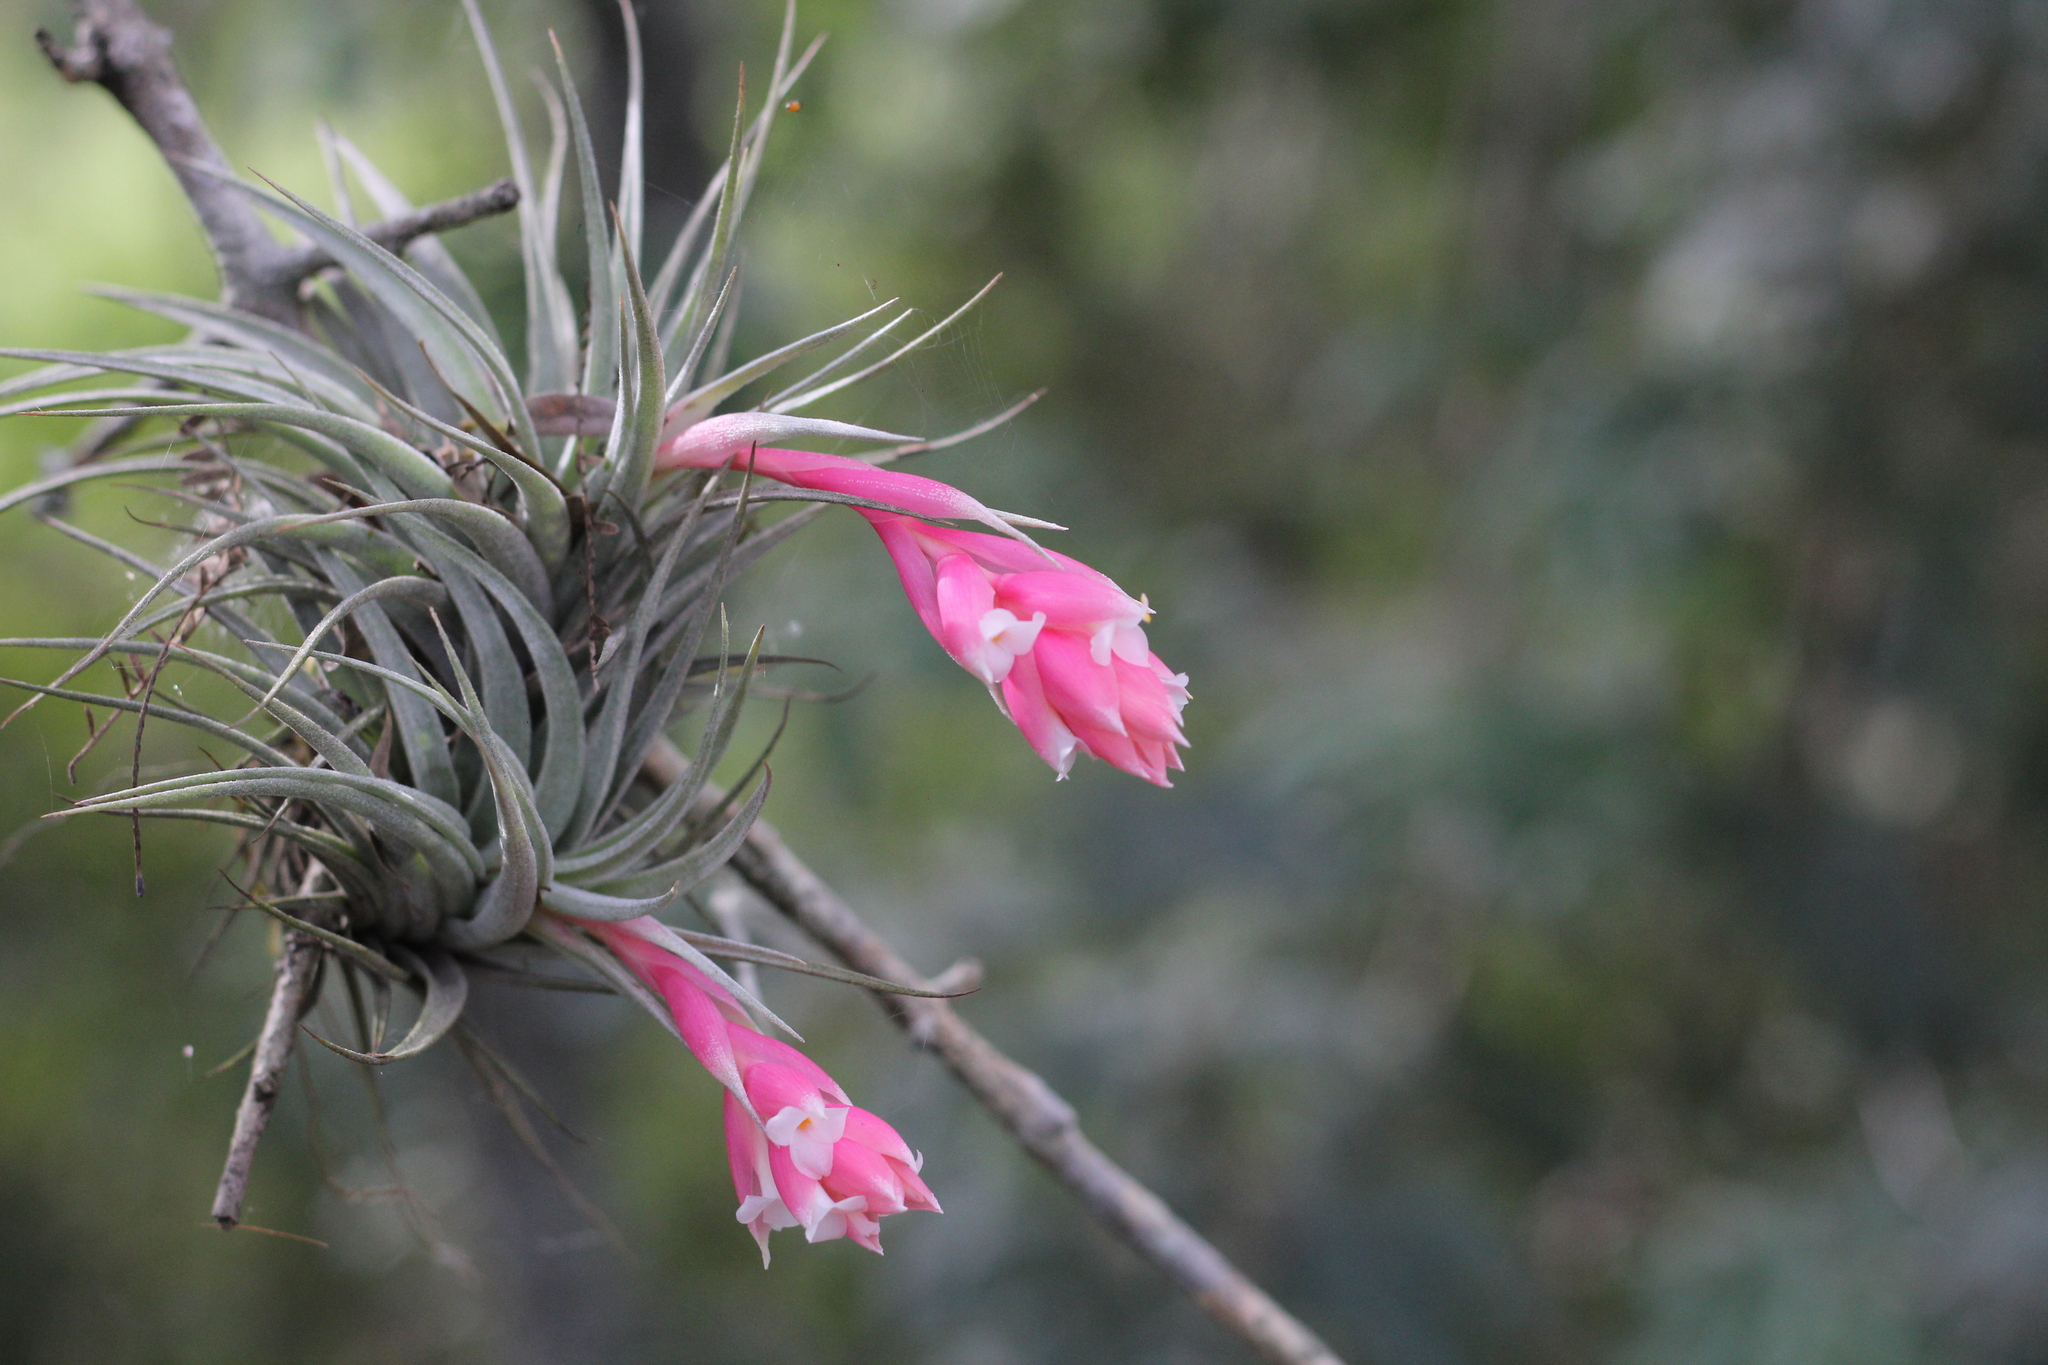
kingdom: Plantae
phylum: Tracheophyta
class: Liliopsida
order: Poales
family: Bromeliaceae
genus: Tillandsia
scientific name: Tillandsia recurvifolia
